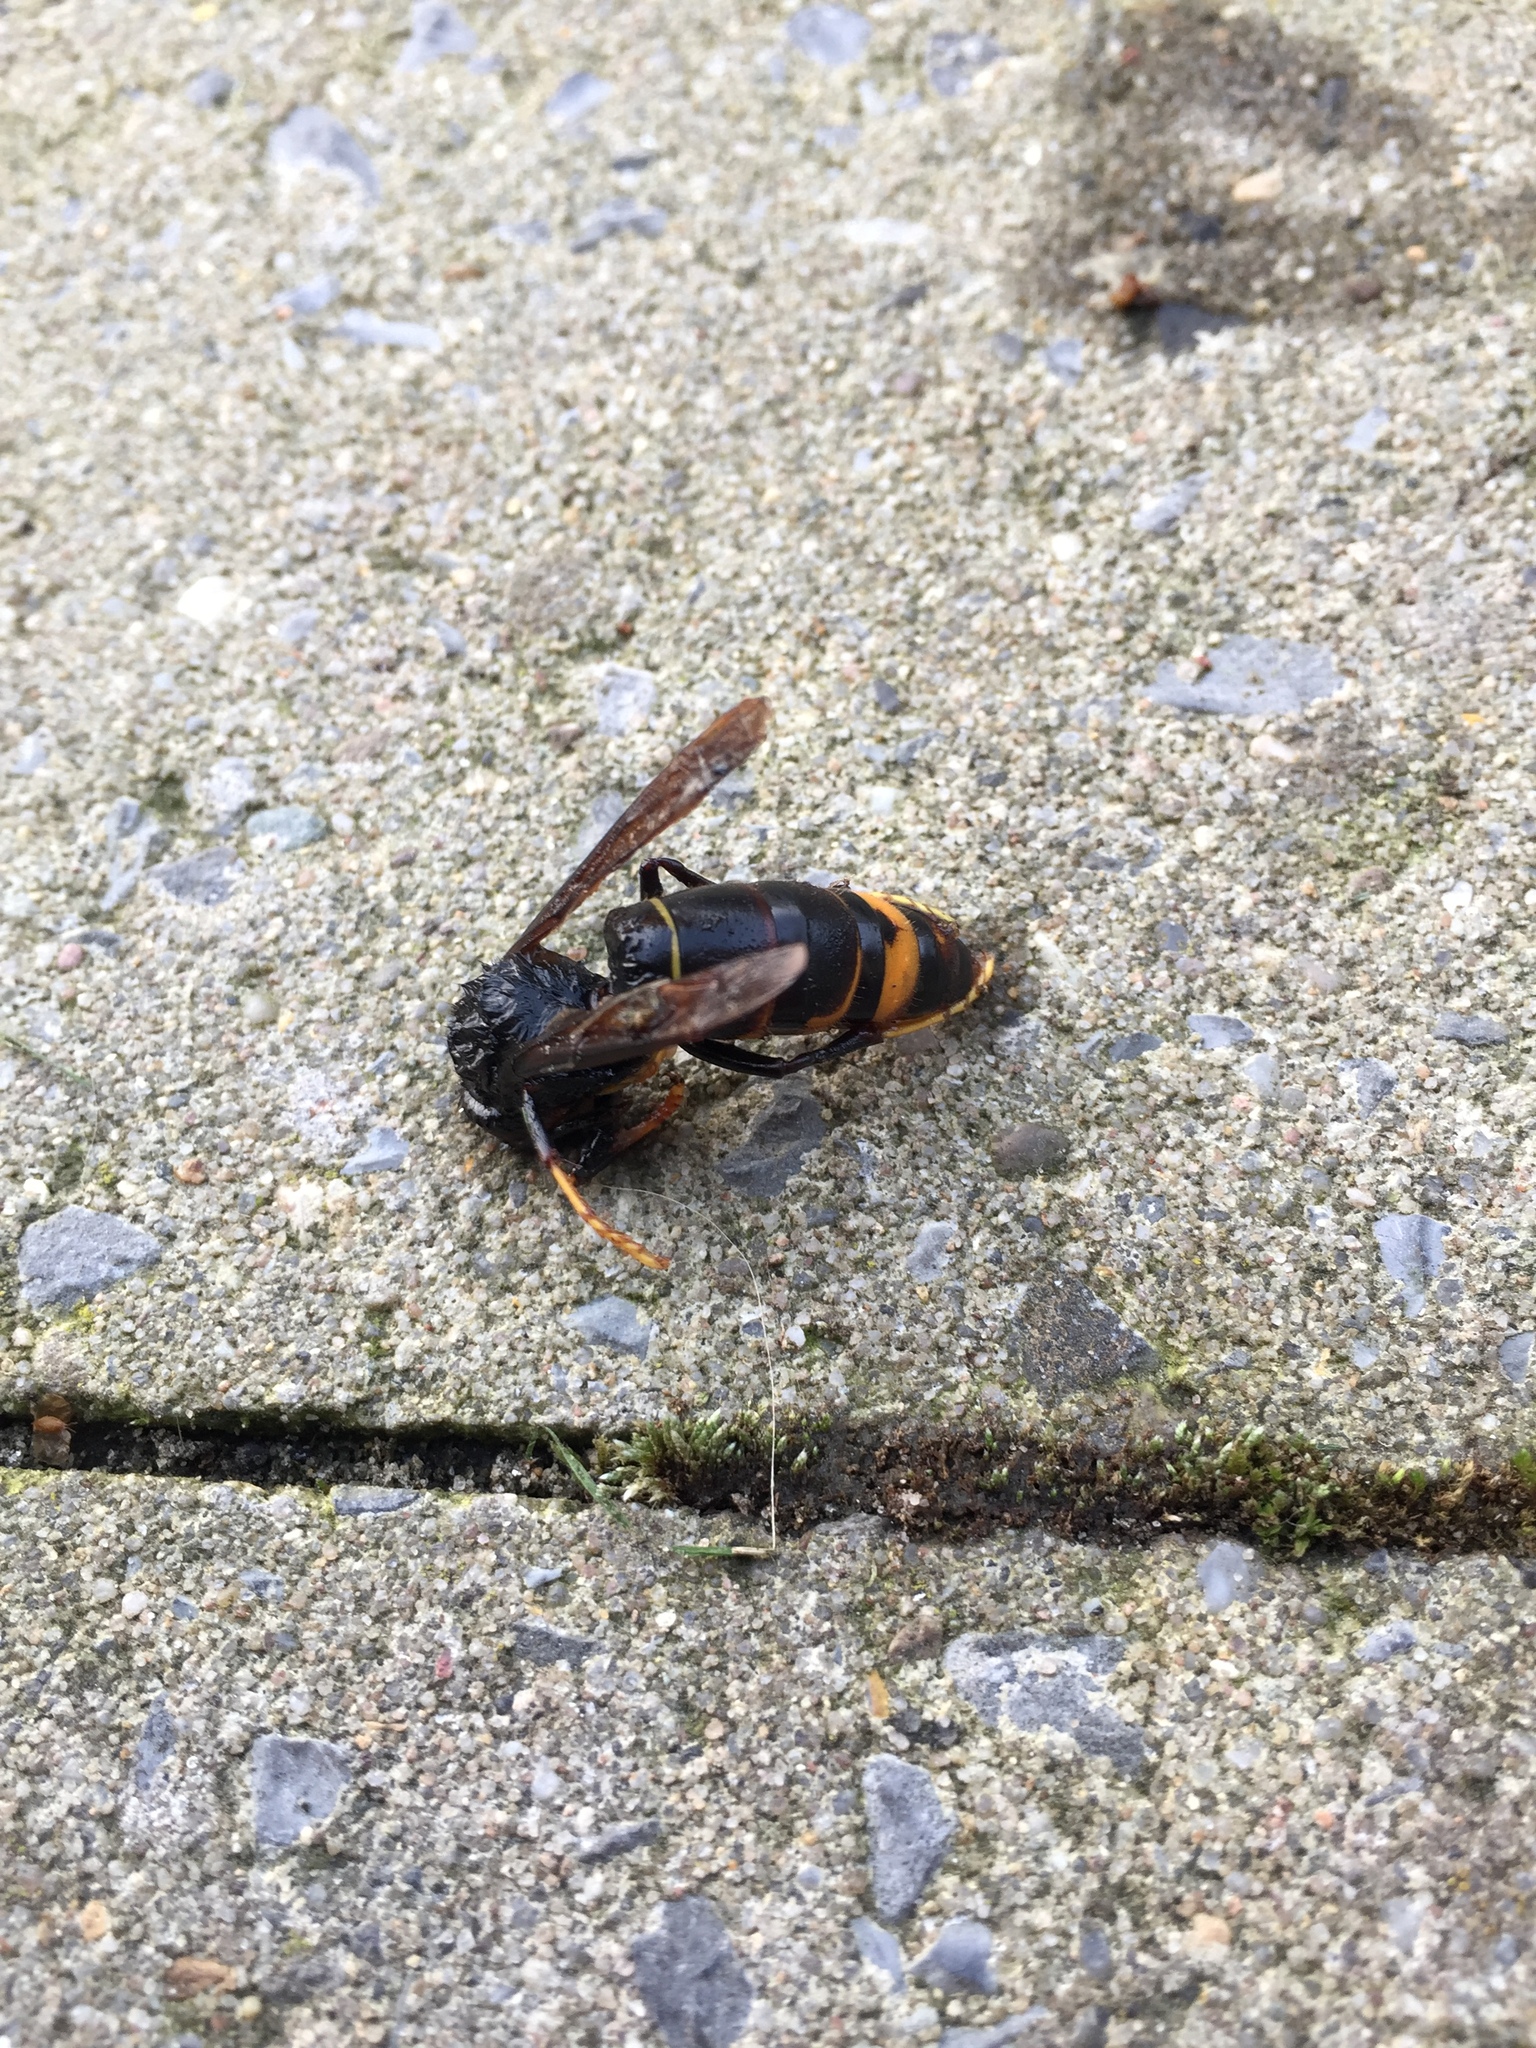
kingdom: Animalia
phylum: Arthropoda
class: Insecta
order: Hymenoptera
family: Vespidae
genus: Vespa
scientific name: Vespa velutina
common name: Asian hornet
